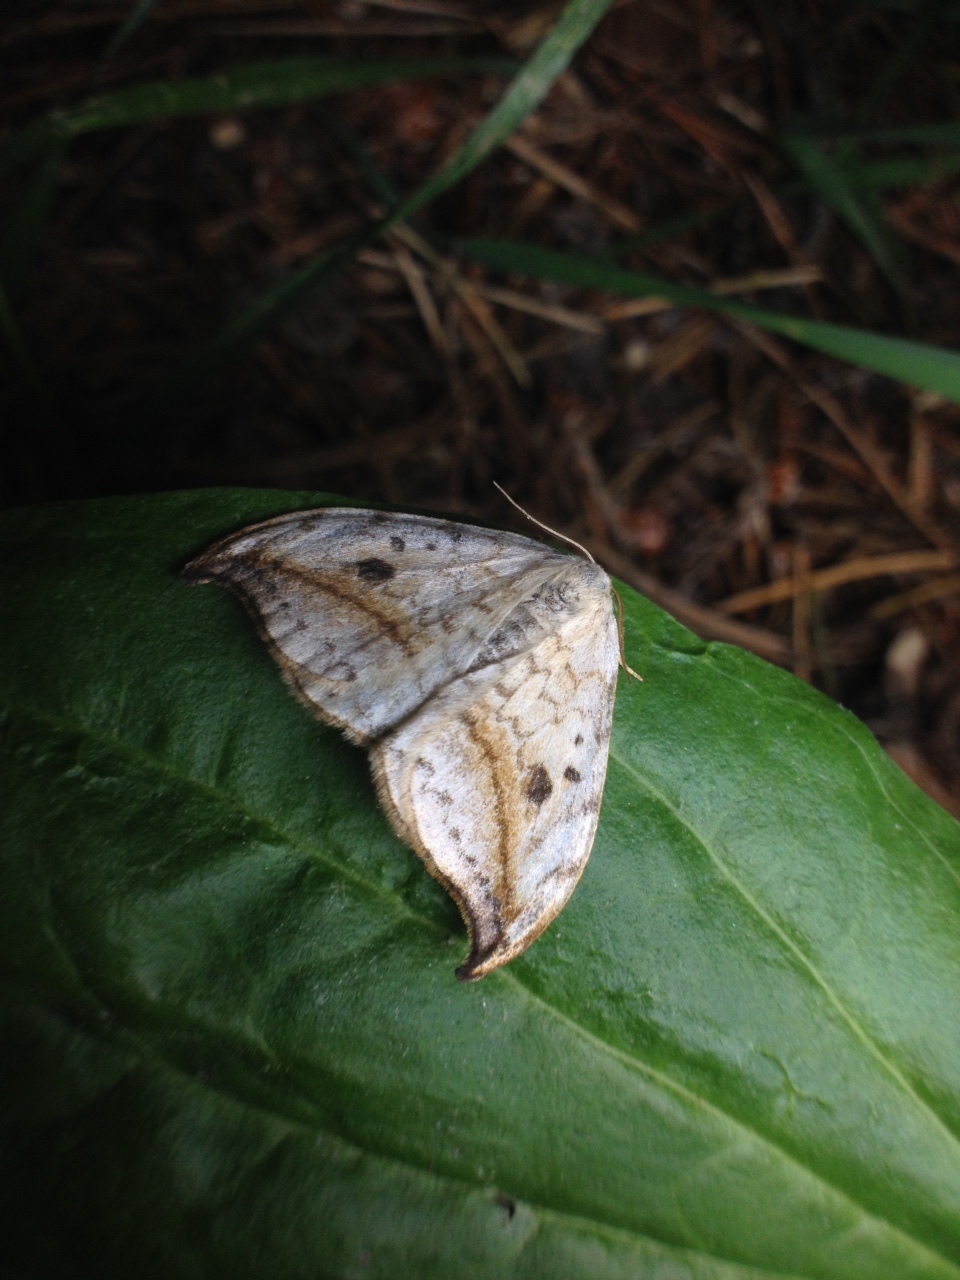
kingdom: Animalia
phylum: Arthropoda
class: Insecta
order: Lepidoptera
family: Drepanidae
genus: Drepana
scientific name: Drepana falcataria
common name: Pebble hook-tip
